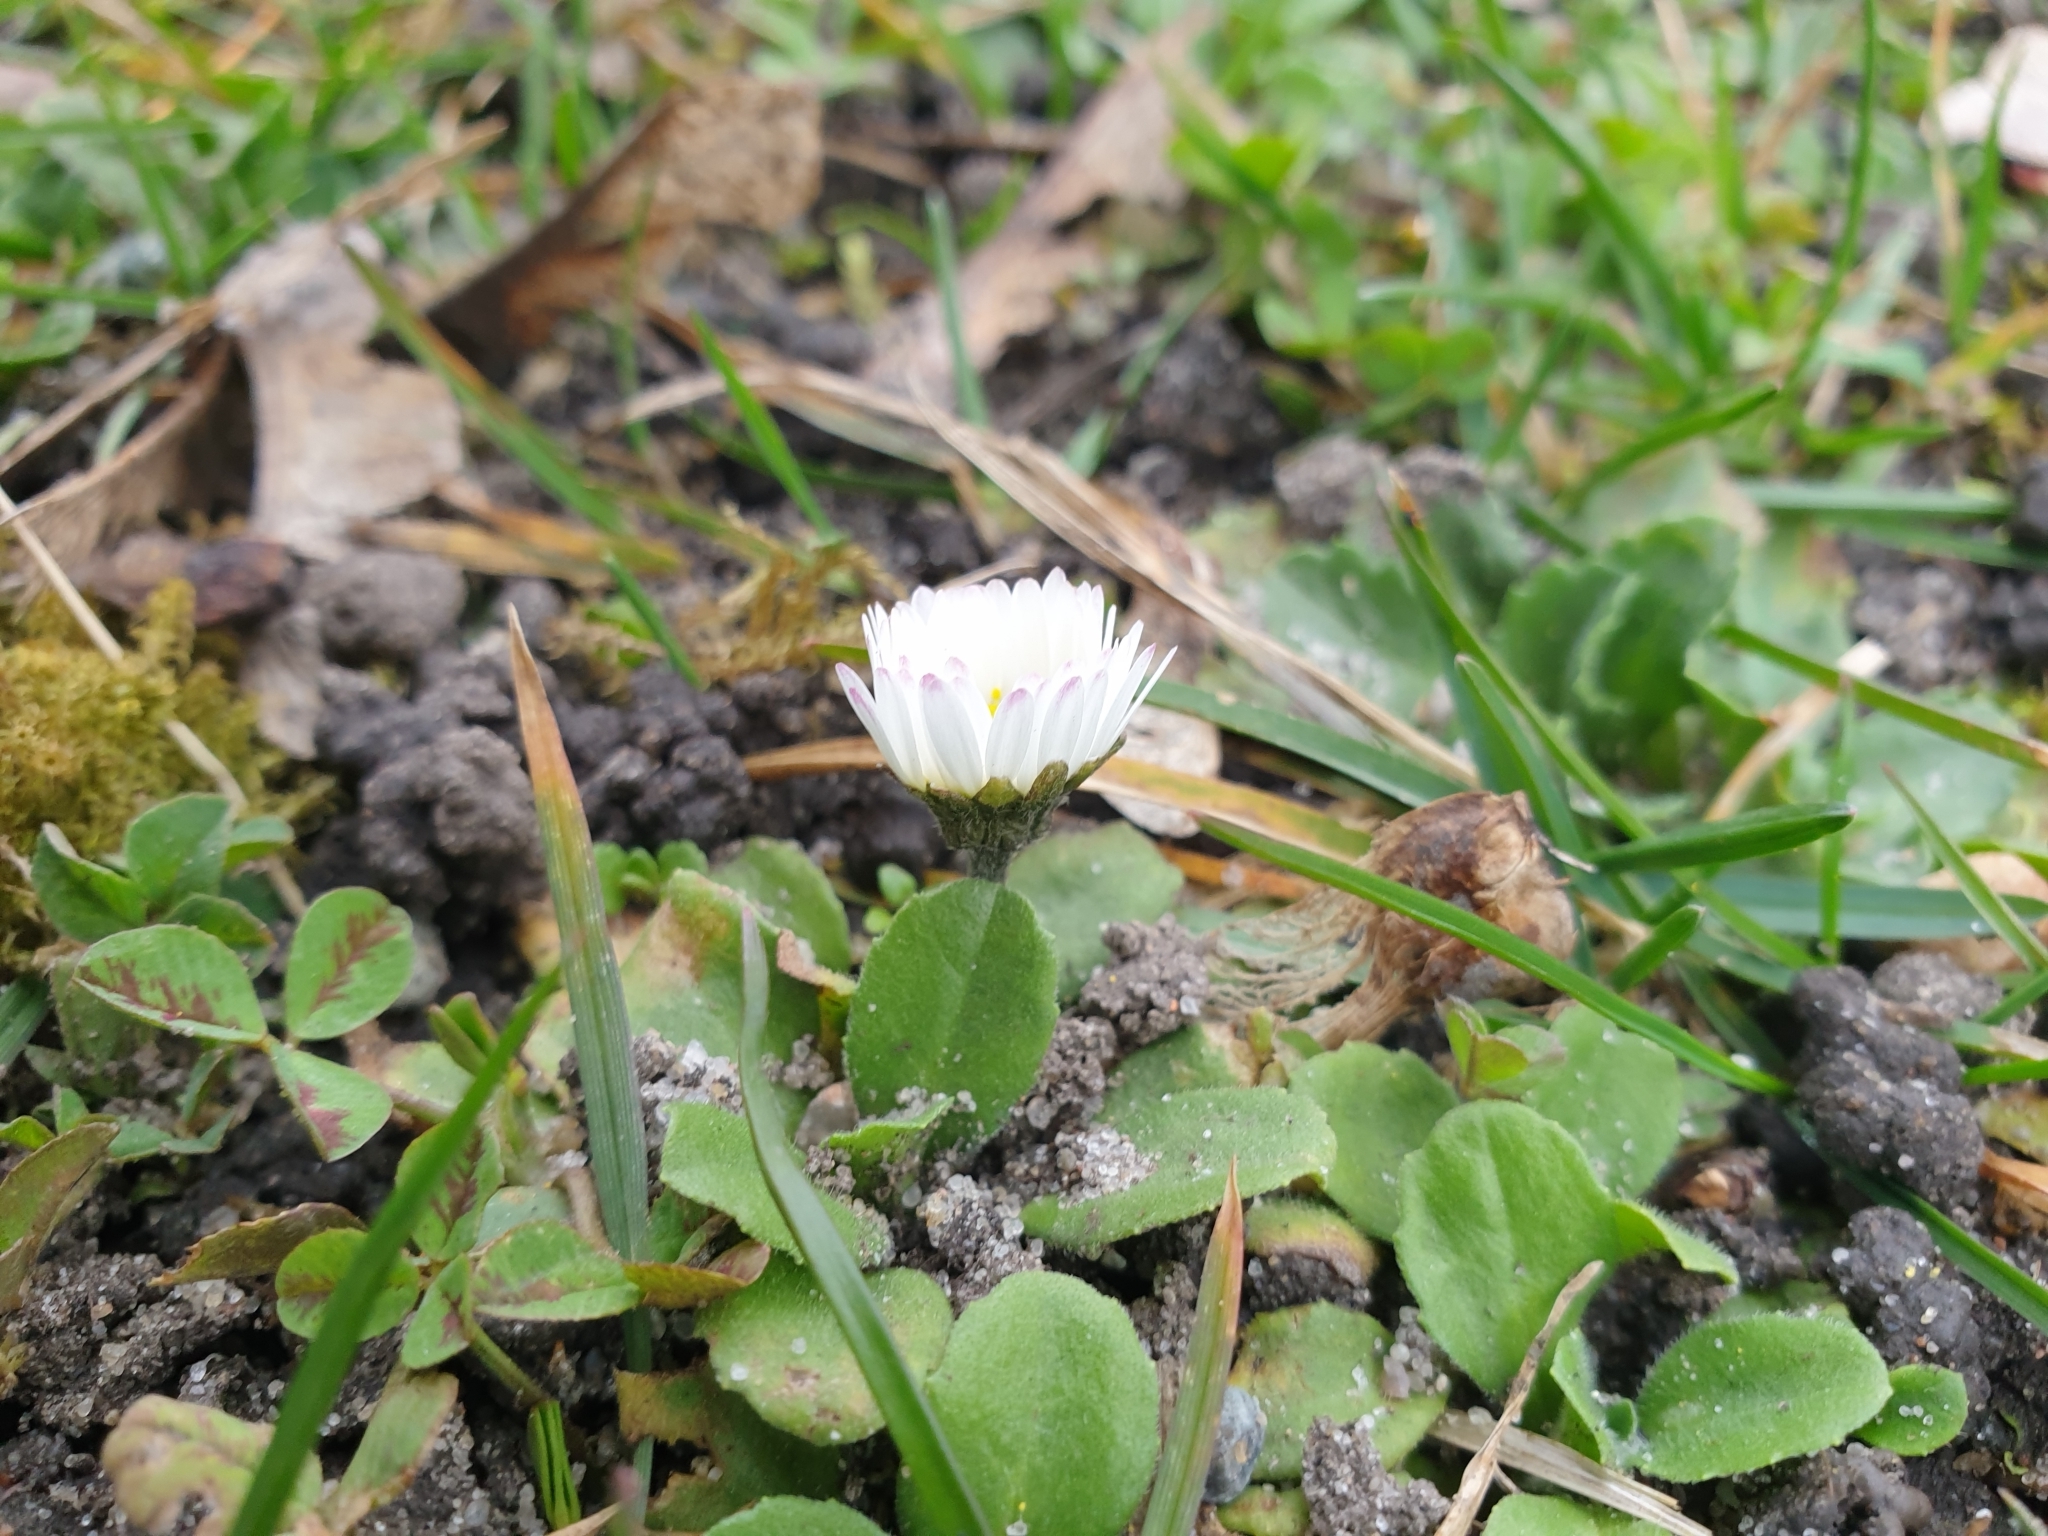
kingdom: Plantae
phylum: Tracheophyta
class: Magnoliopsida
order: Asterales
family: Asteraceae
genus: Bellis
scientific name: Bellis perennis
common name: Lawndaisy
